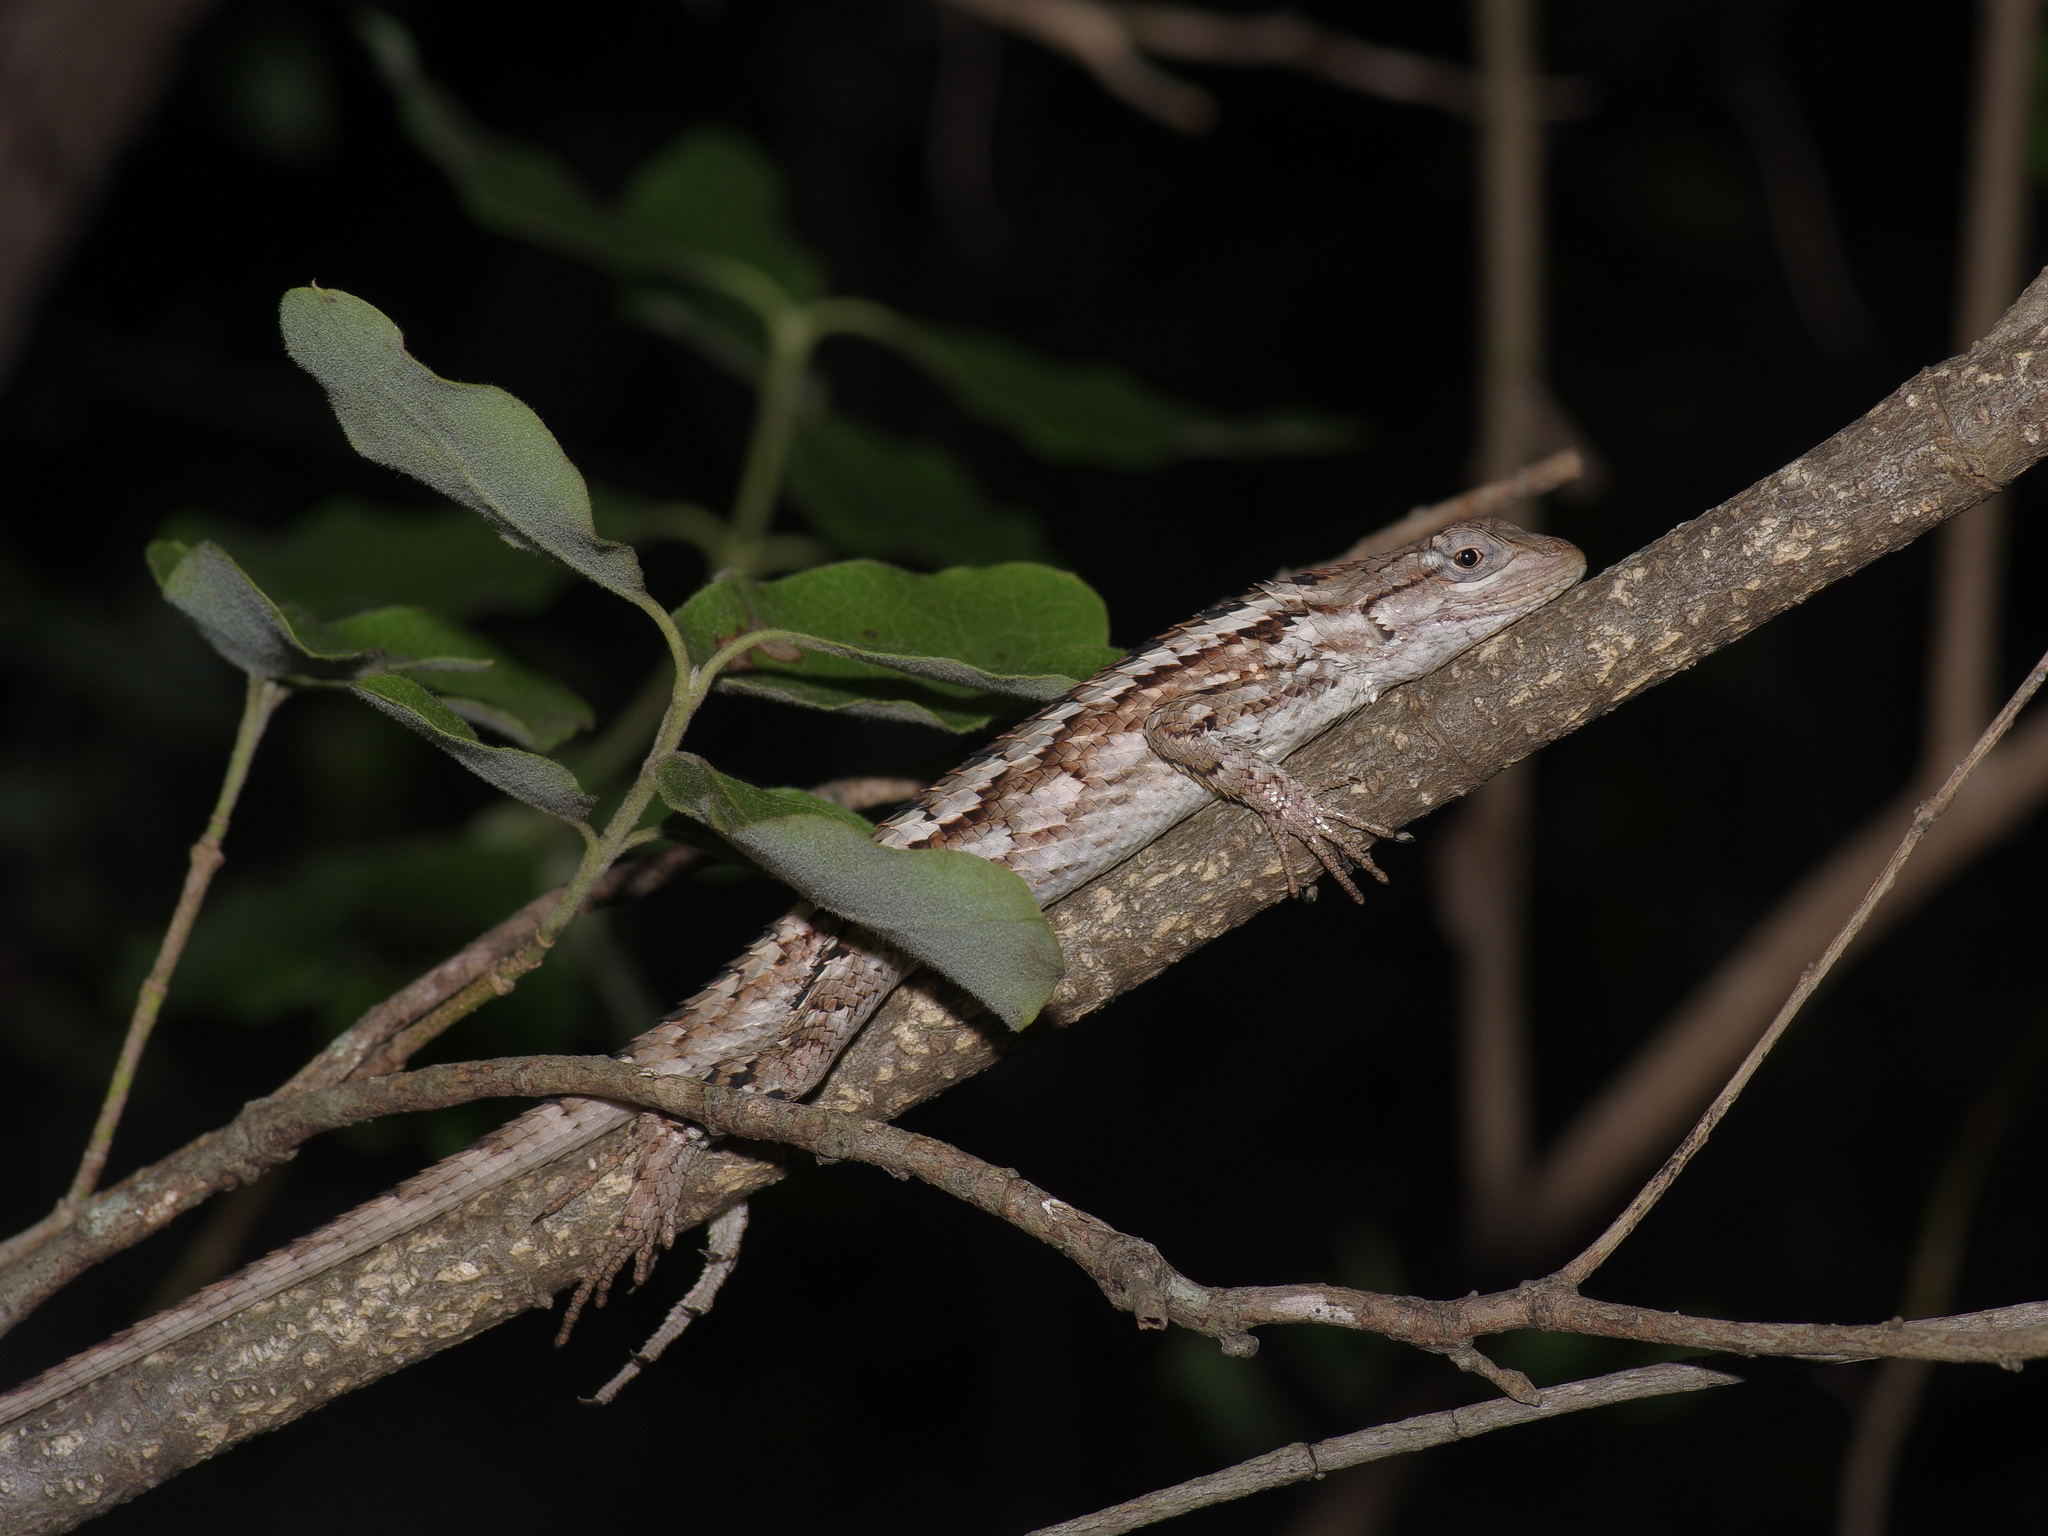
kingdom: Animalia
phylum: Chordata
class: Squamata
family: Phrynosomatidae
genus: Sceloporus
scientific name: Sceloporus olivaceus
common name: Texas spiny lizard
